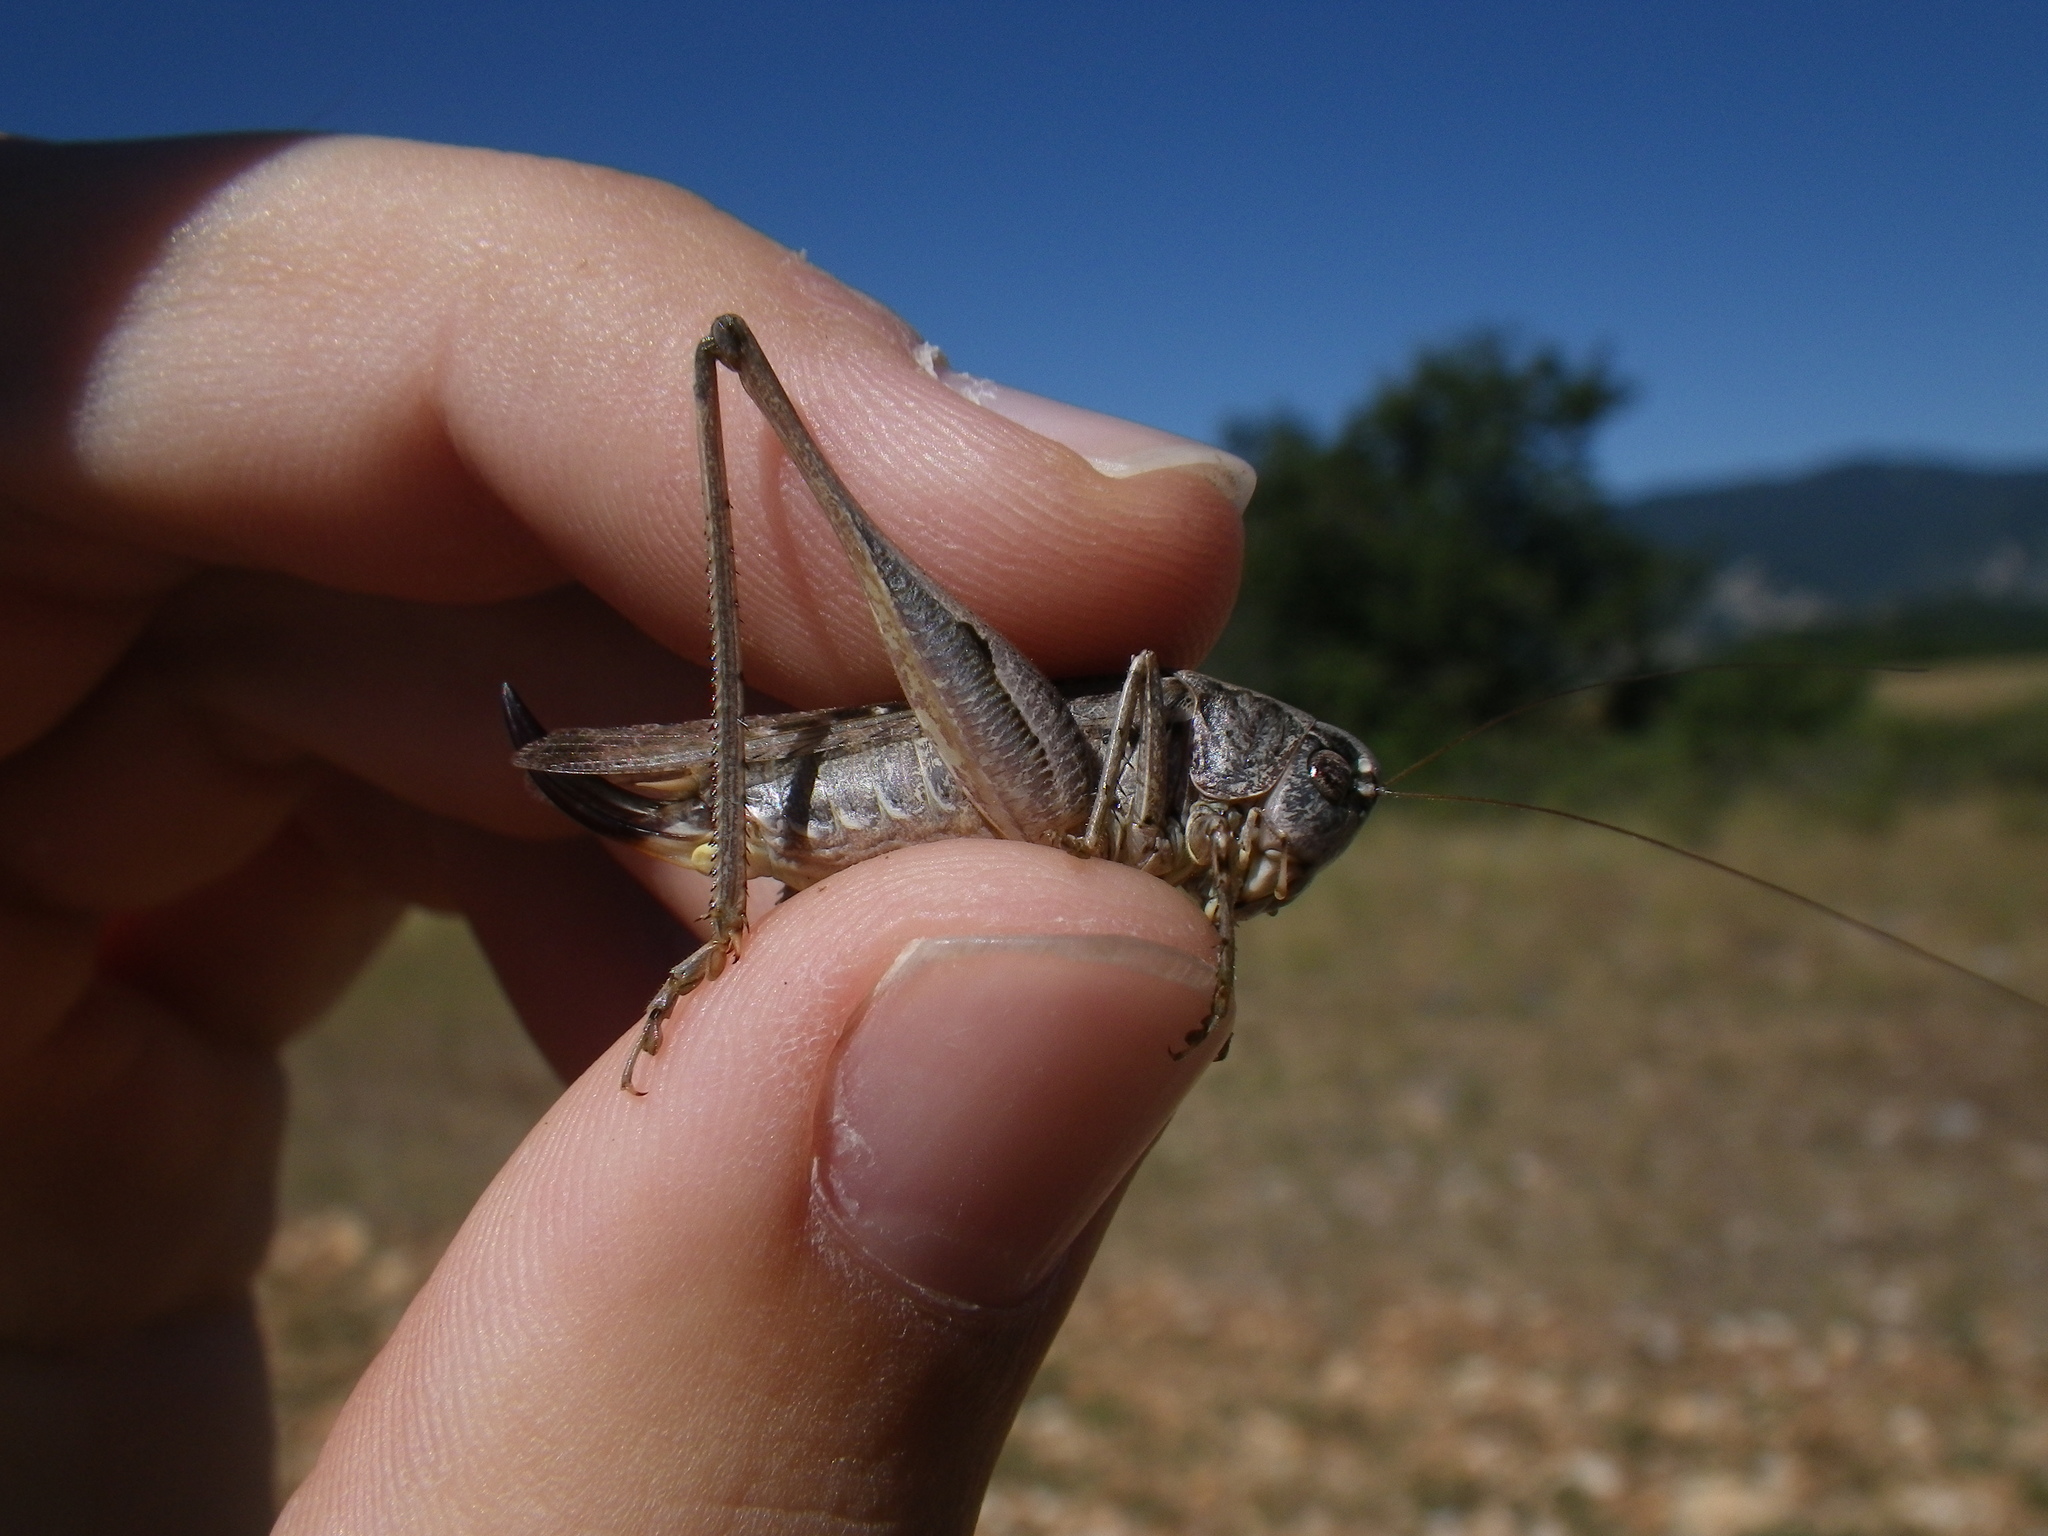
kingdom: Animalia
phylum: Arthropoda
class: Insecta
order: Orthoptera
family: Tettigoniidae
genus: Platycleis
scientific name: Platycleis albopunctata
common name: Grey bush-cricket
